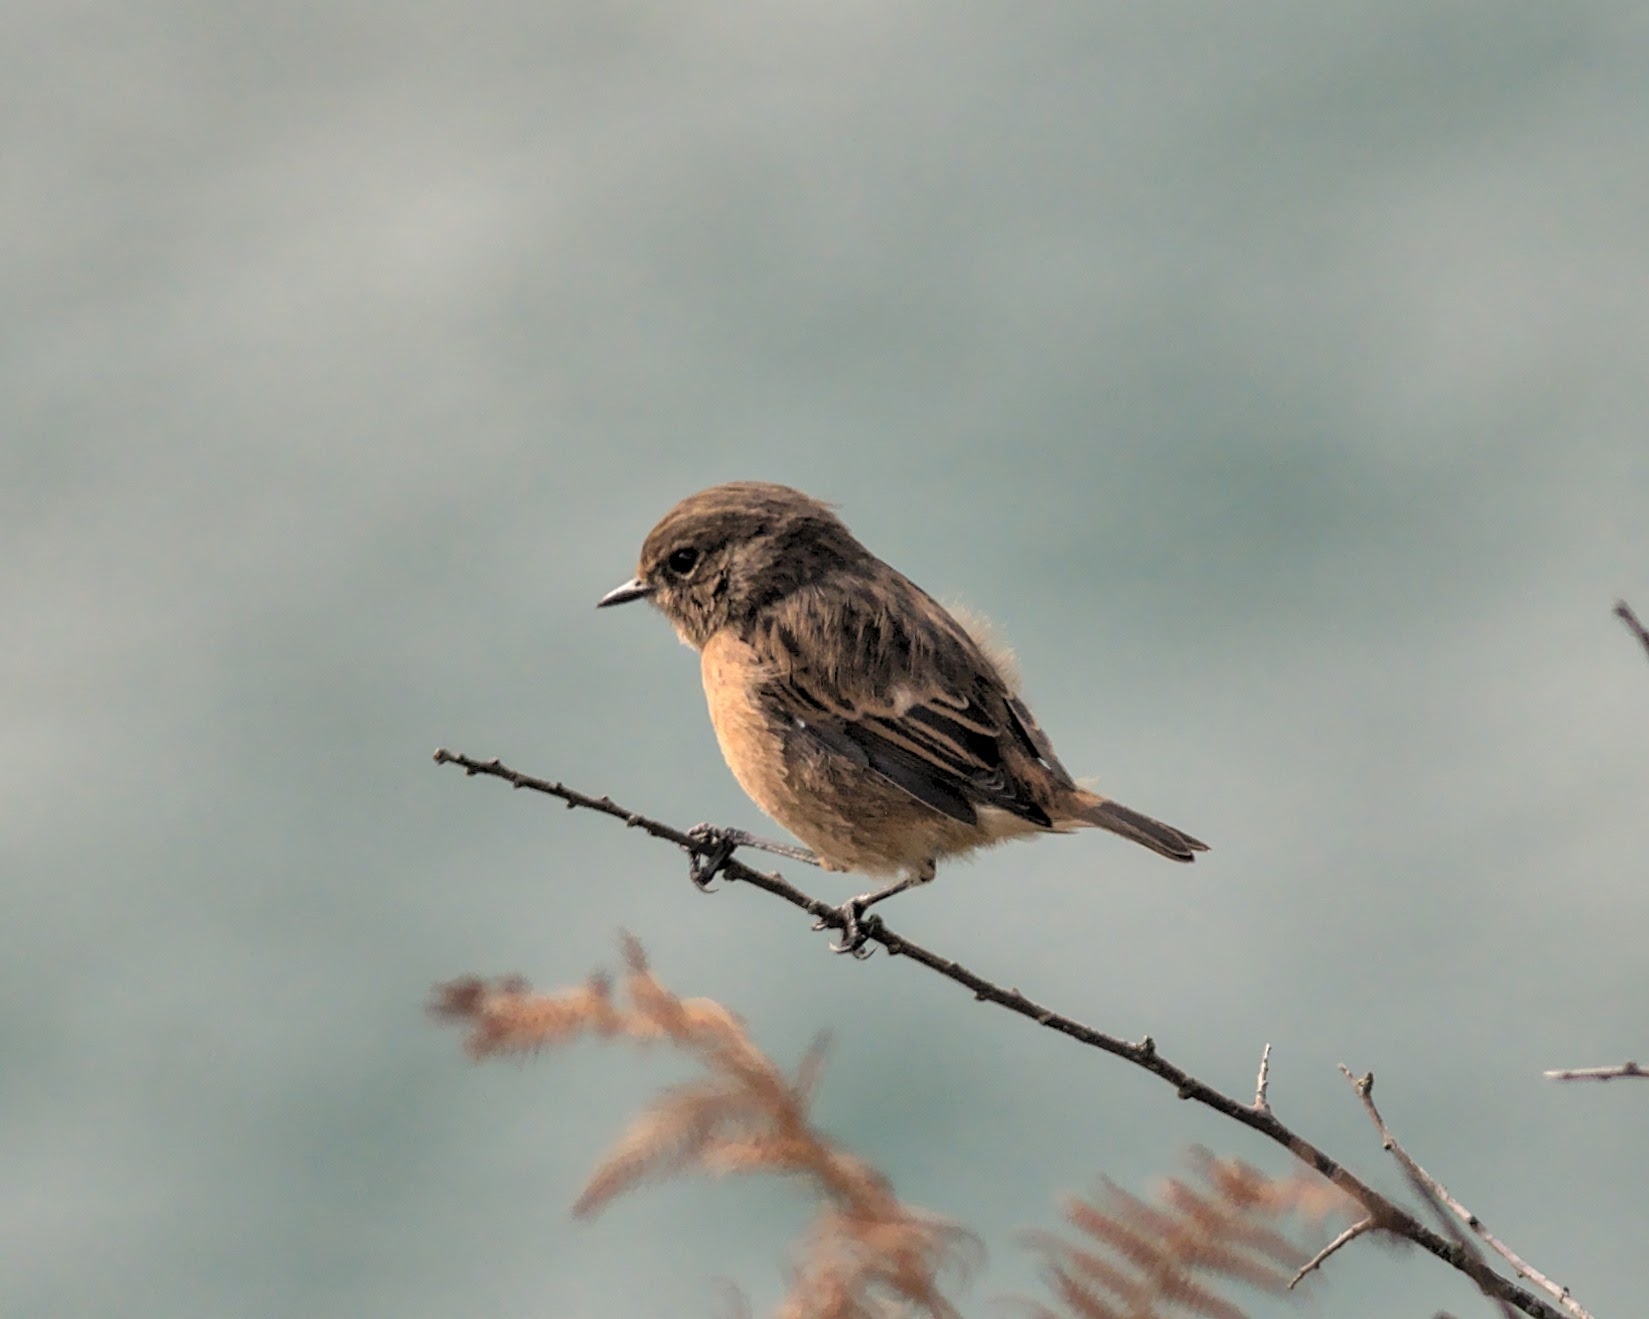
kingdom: Animalia
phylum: Chordata
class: Aves
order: Passeriformes
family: Muscicapidae
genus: Saxicola
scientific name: Saxicola rubicola
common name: European stonechat
